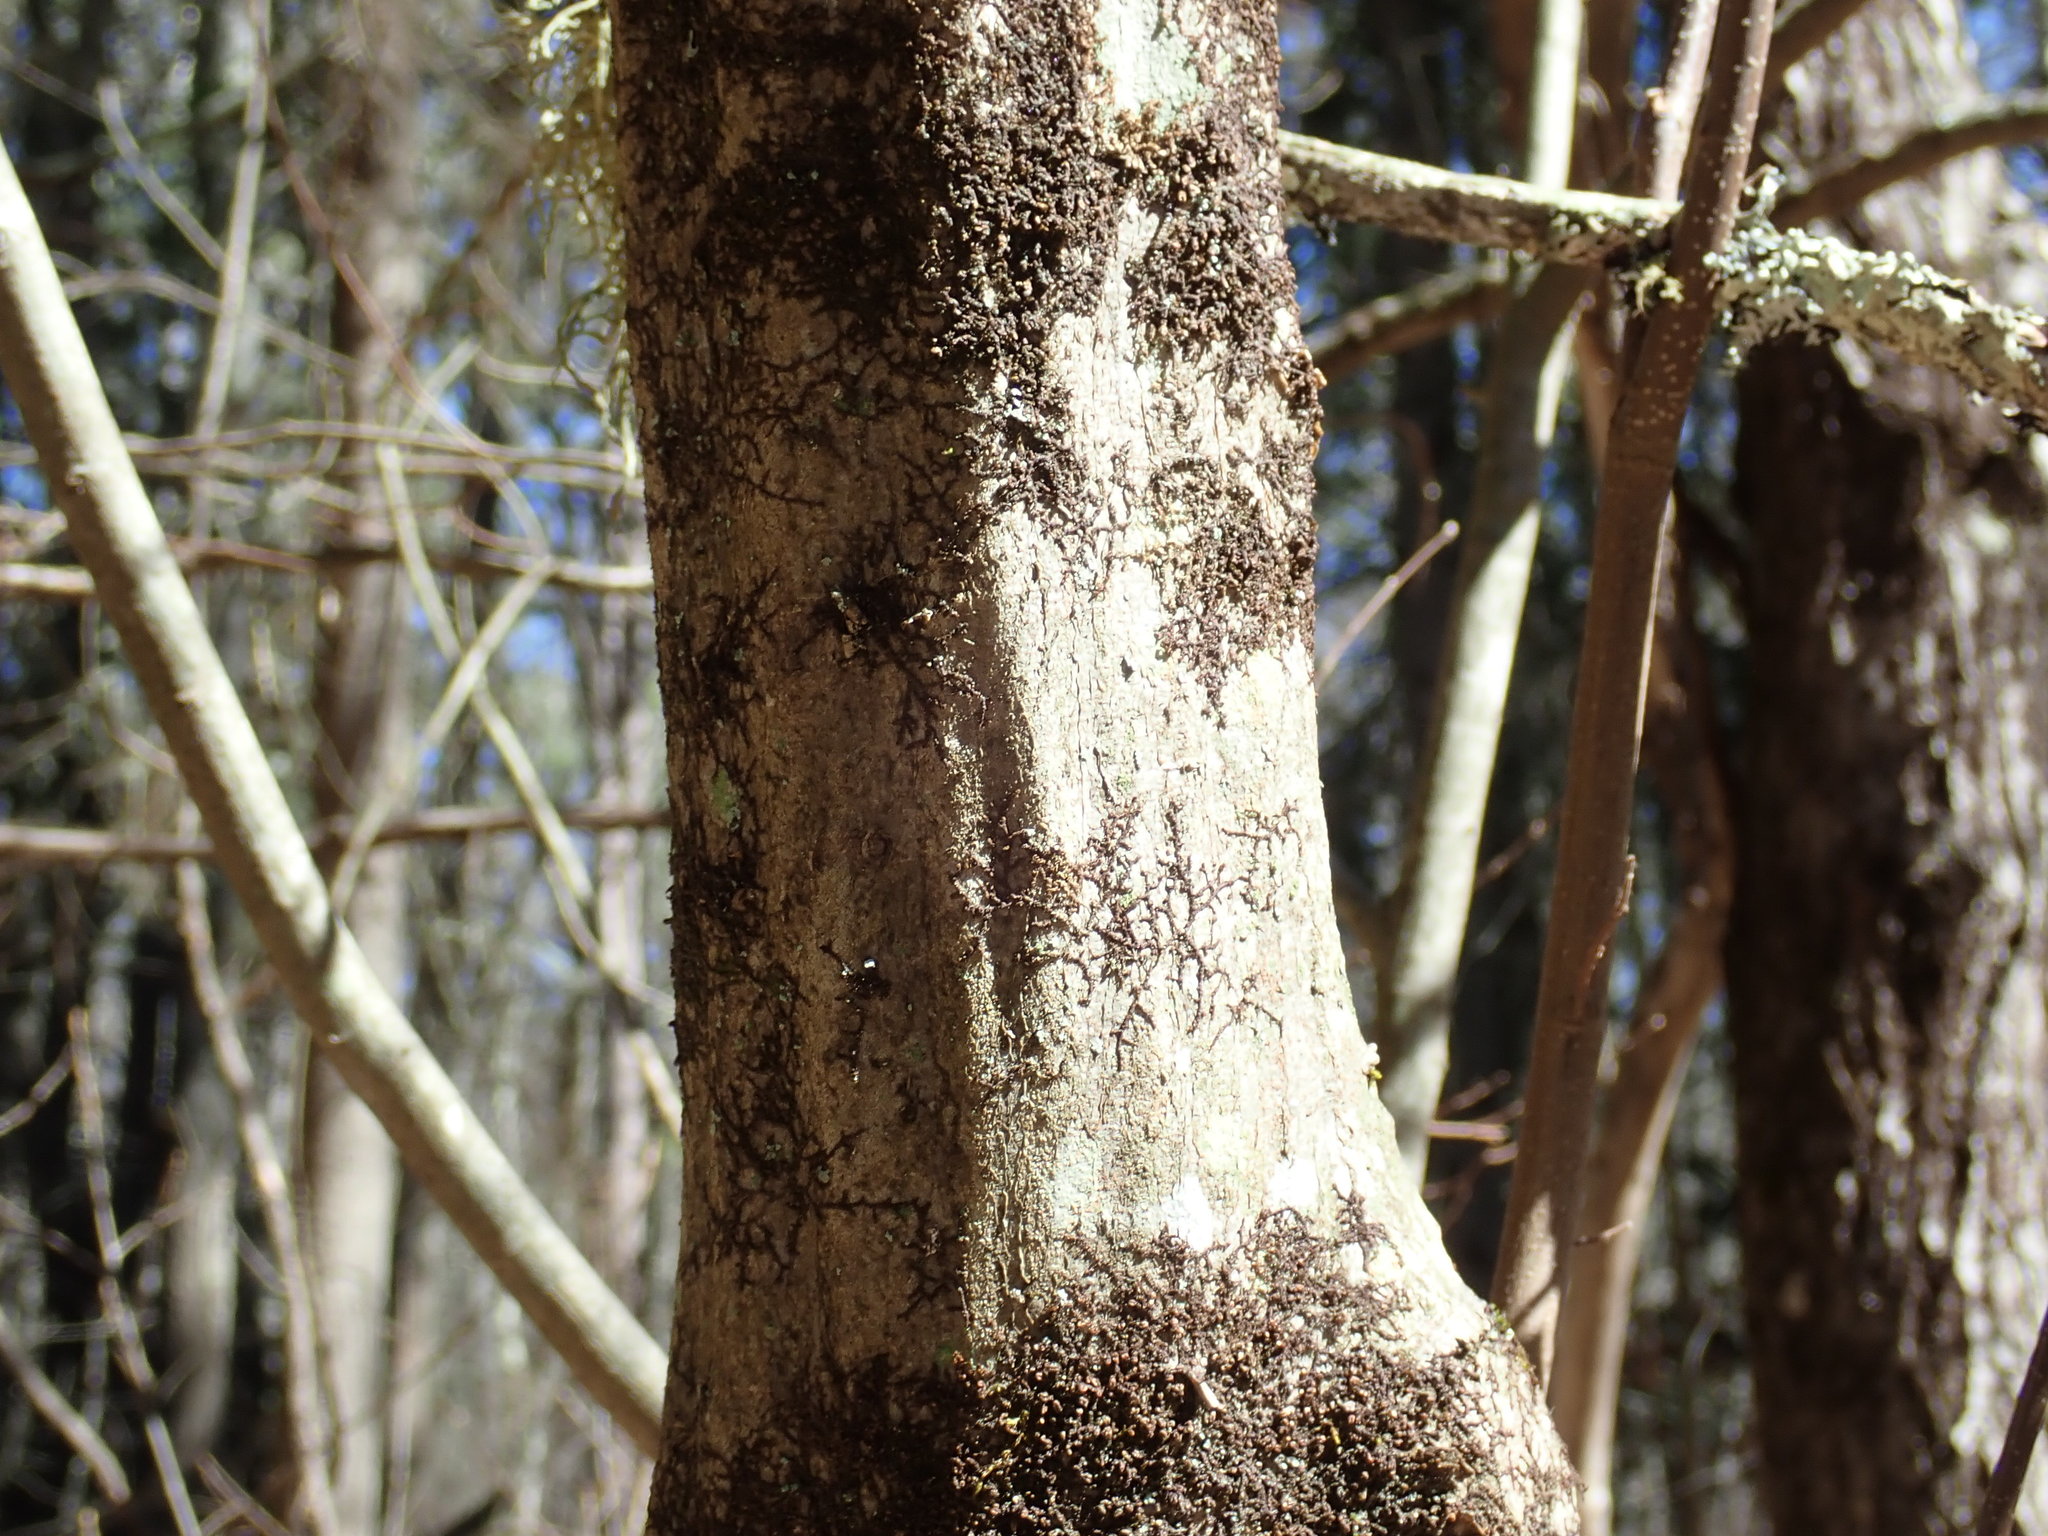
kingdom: Plantae
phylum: Tracheophyta
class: Magnoliopsida
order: Fagales
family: Betulaceae
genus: Carpinus
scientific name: Carpinus caroliniana
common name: American hornbeam
